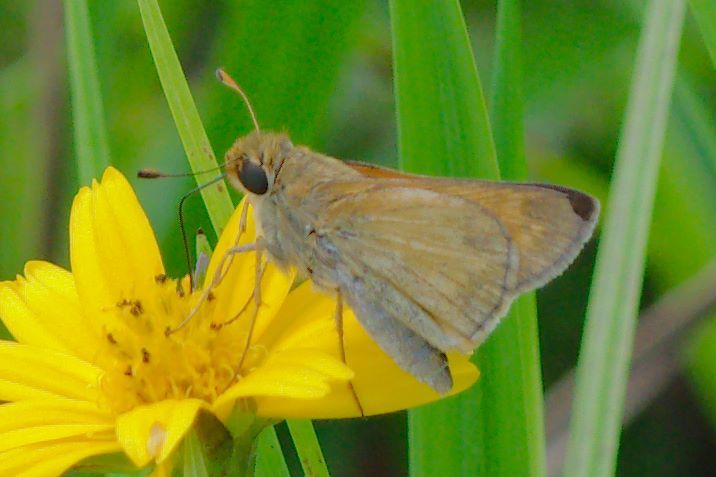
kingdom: Animalia
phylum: Arthropoda
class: Insecta
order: Lepidoptera
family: Hesperiidae
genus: Atalopedes
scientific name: Atalopedes
